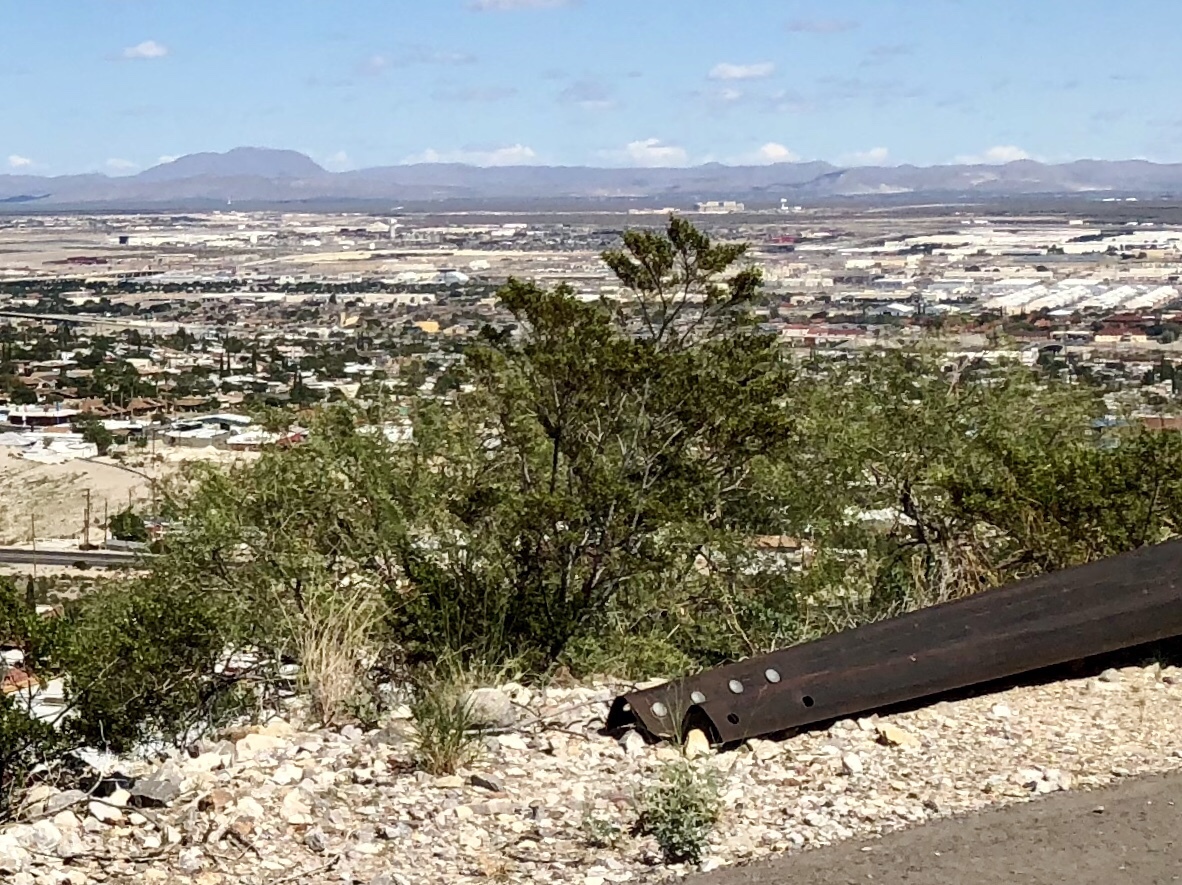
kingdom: Plantae
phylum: Tracheophyta
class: Magnoliopsida
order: Zygophyllales
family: Zygophyllaceae
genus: Larrea
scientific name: Larrea tridentata
